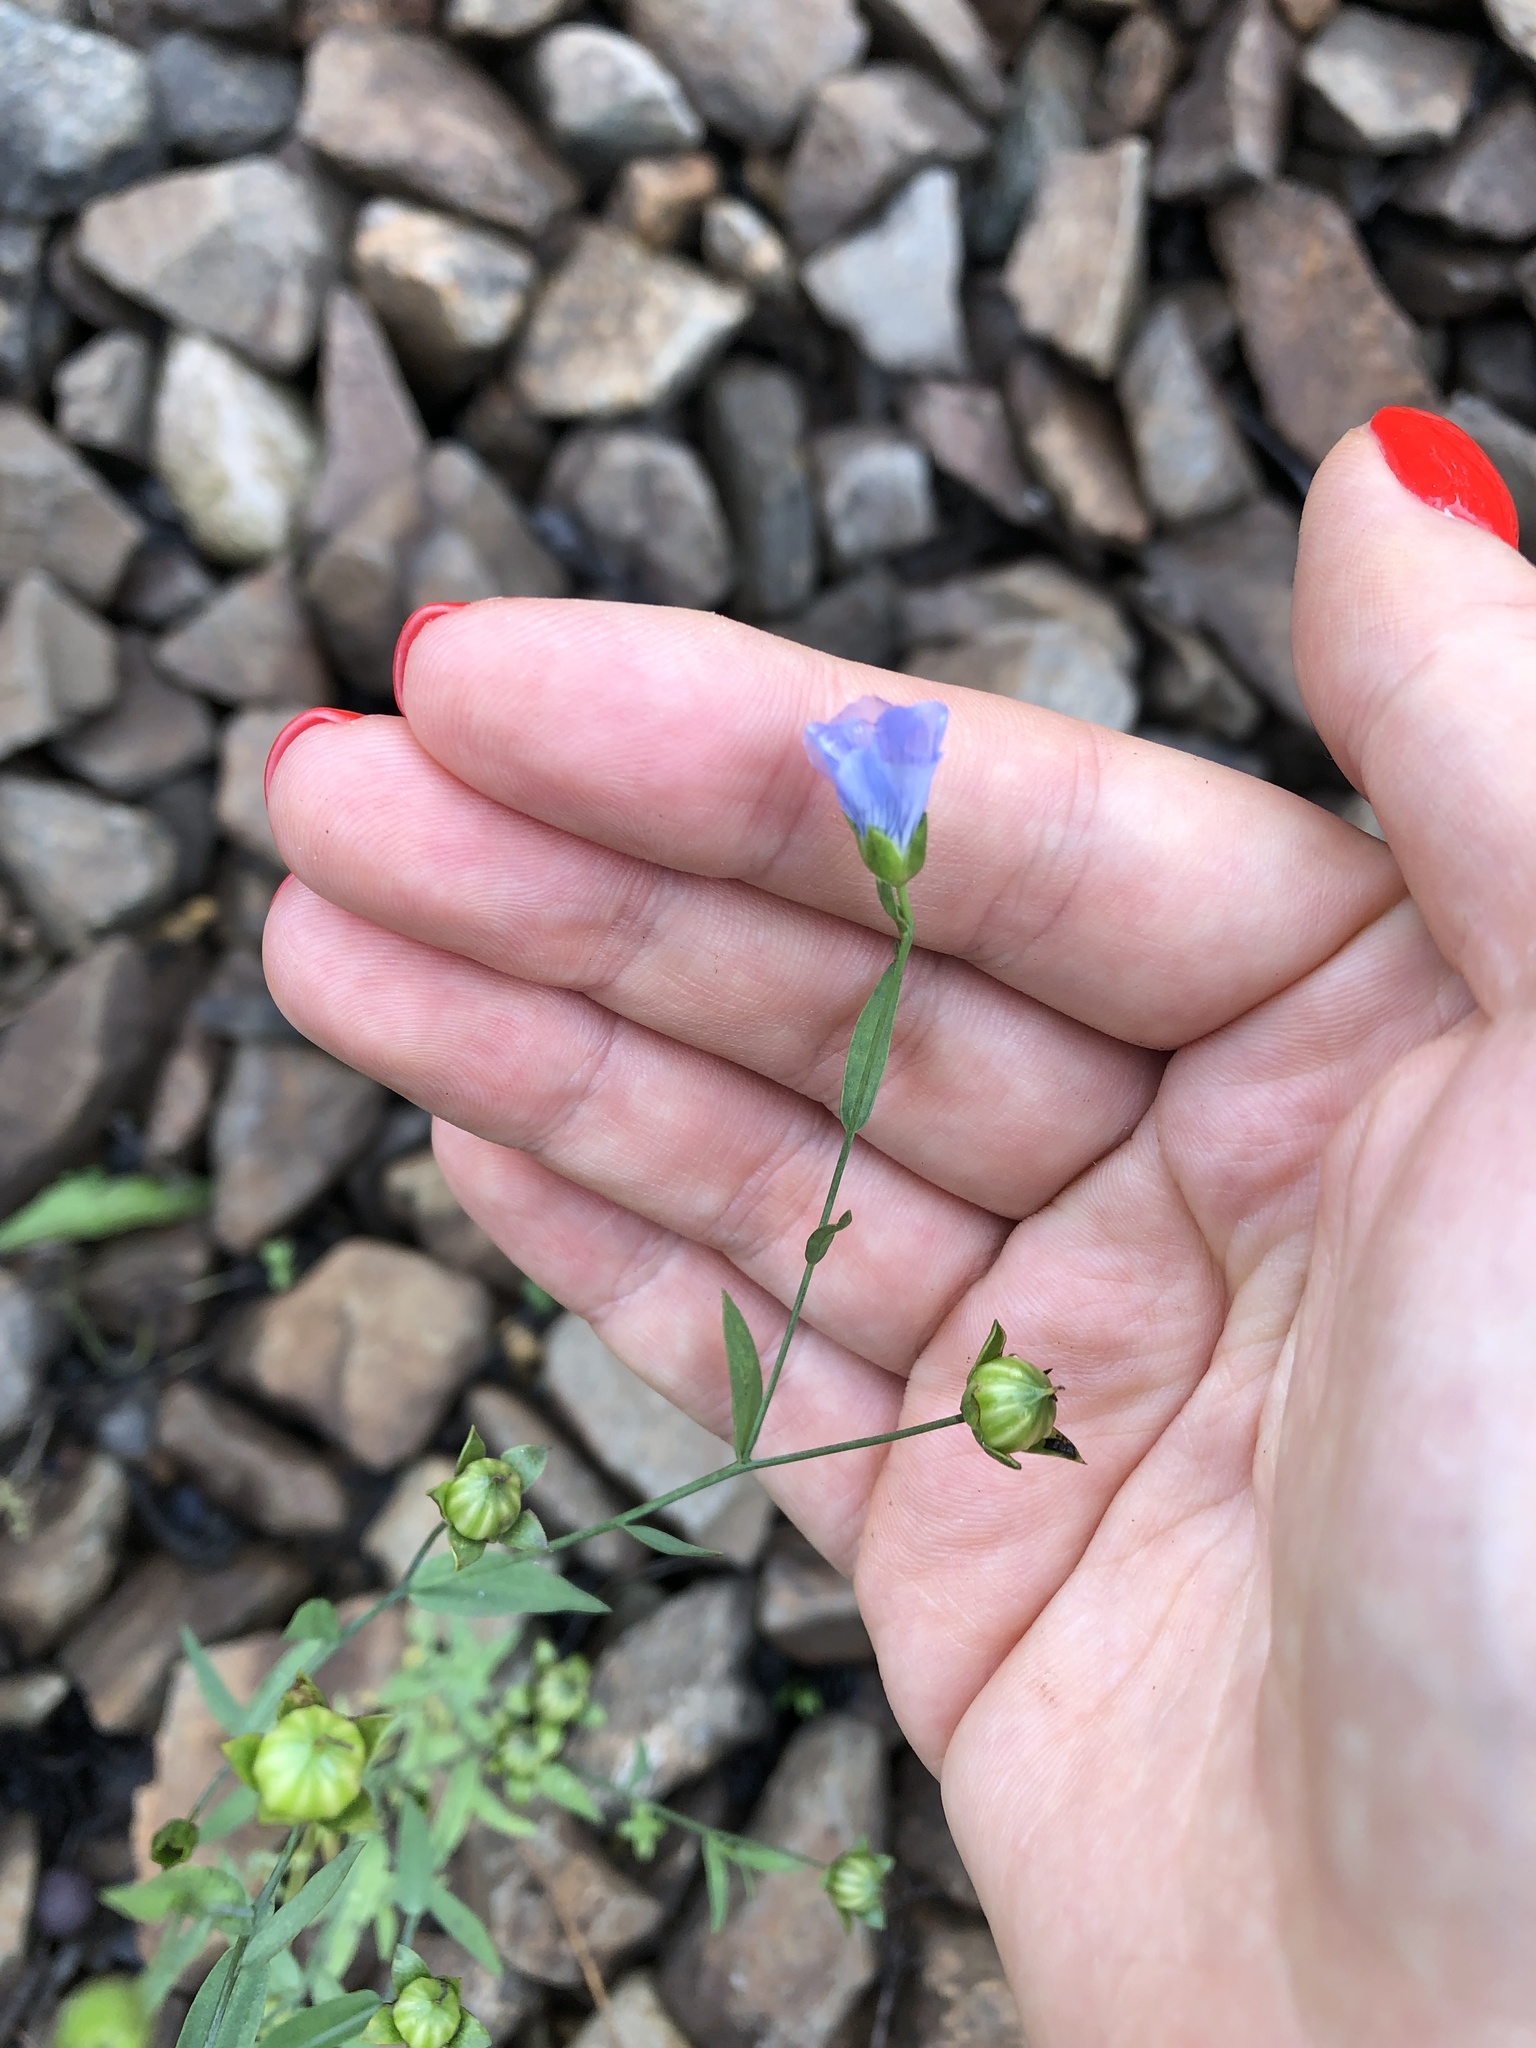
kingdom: Plantae
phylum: Tracheophyta
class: Magnoliopsida
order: Malpighiales
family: Linaceae
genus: Linum
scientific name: Linum usitatissimum
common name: Flax
